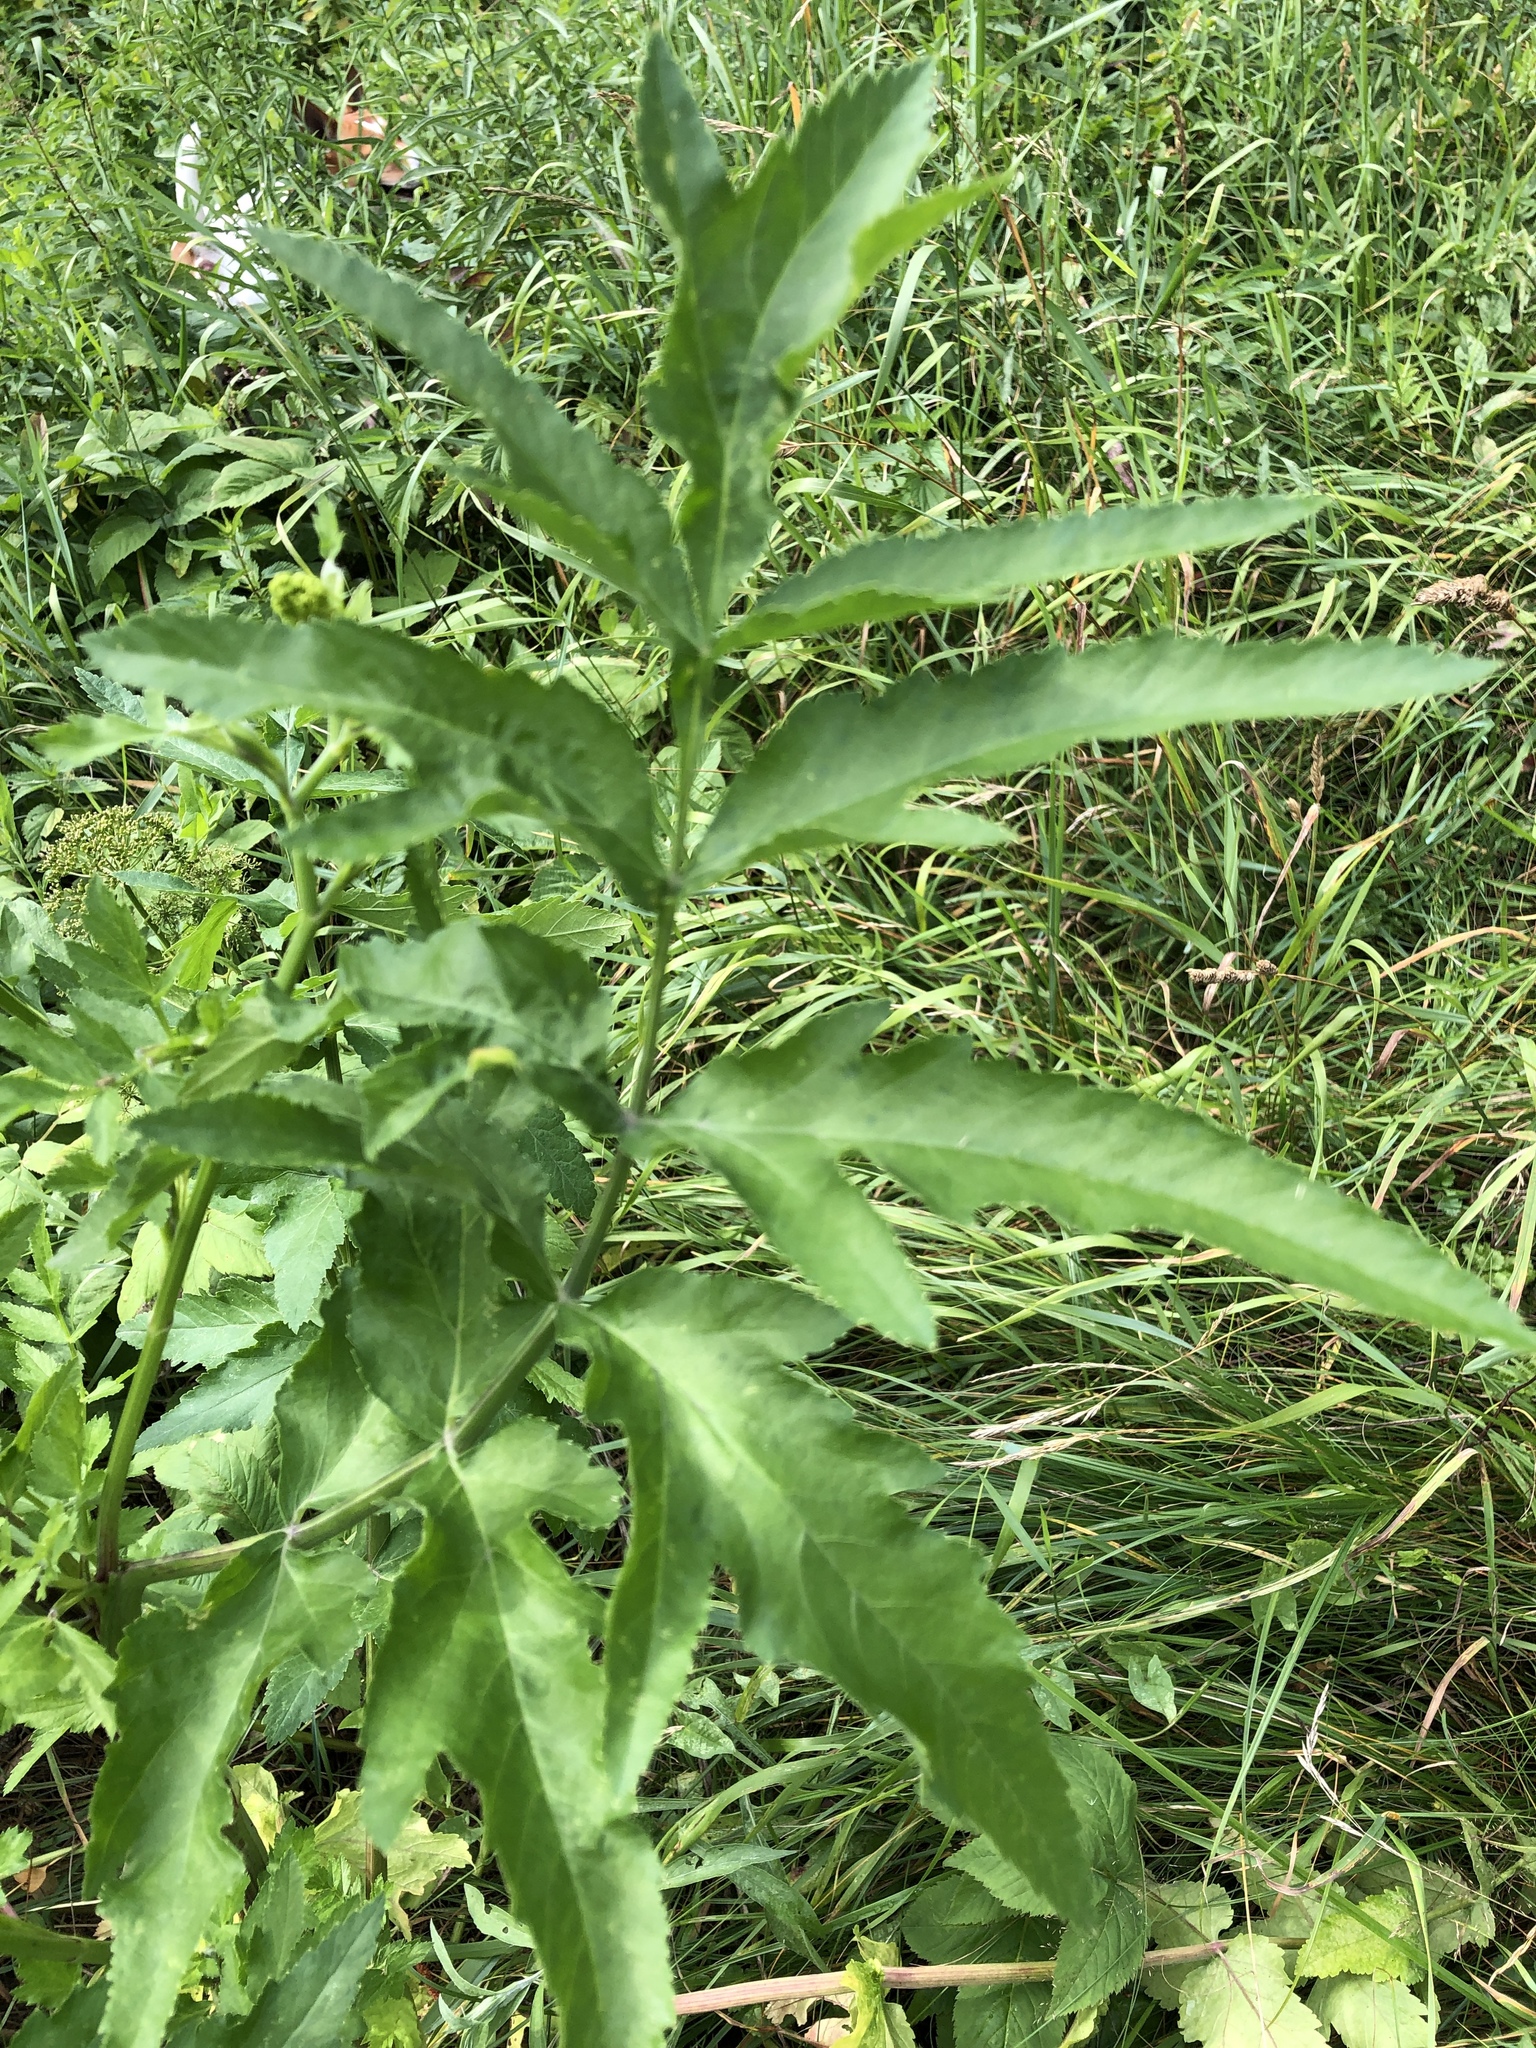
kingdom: Plantae
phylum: Tracheophyta
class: Magnoliopsida
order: Apiales
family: Apiaceae
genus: Pastinaca
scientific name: Pastinaca sativa
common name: Wild parsnip
